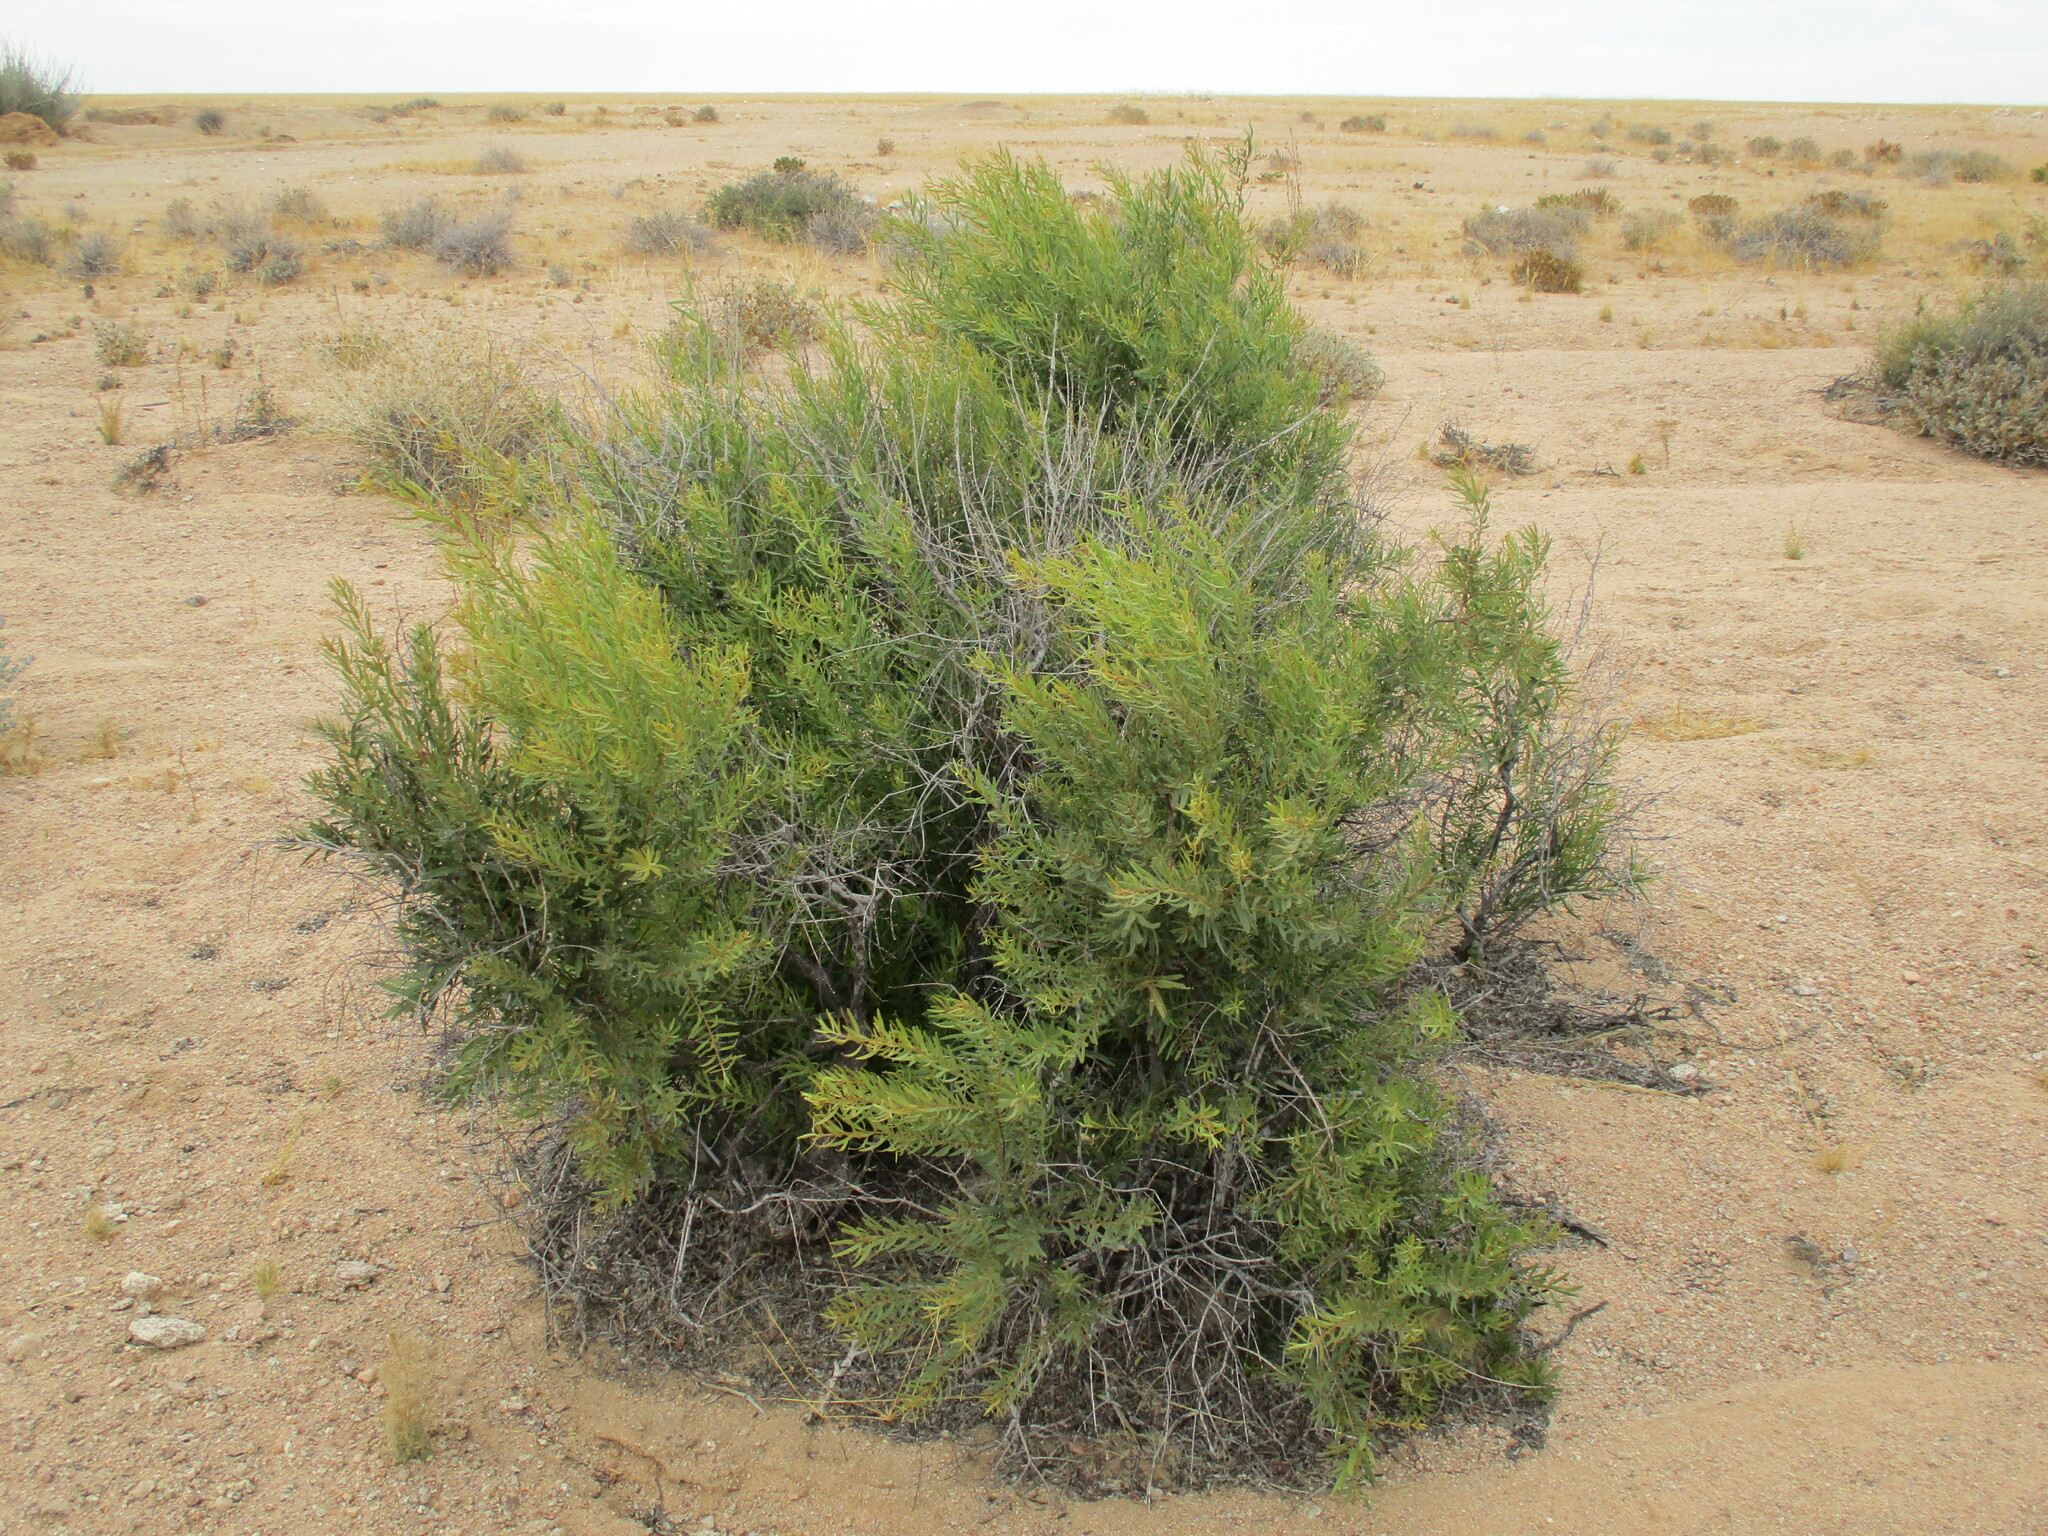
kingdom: Plantae
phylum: Tracheophyta
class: Magnoliopsida
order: Ericales
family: Ebenaceae
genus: Euclea
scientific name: Euclea pseudebenus
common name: Black ebony
